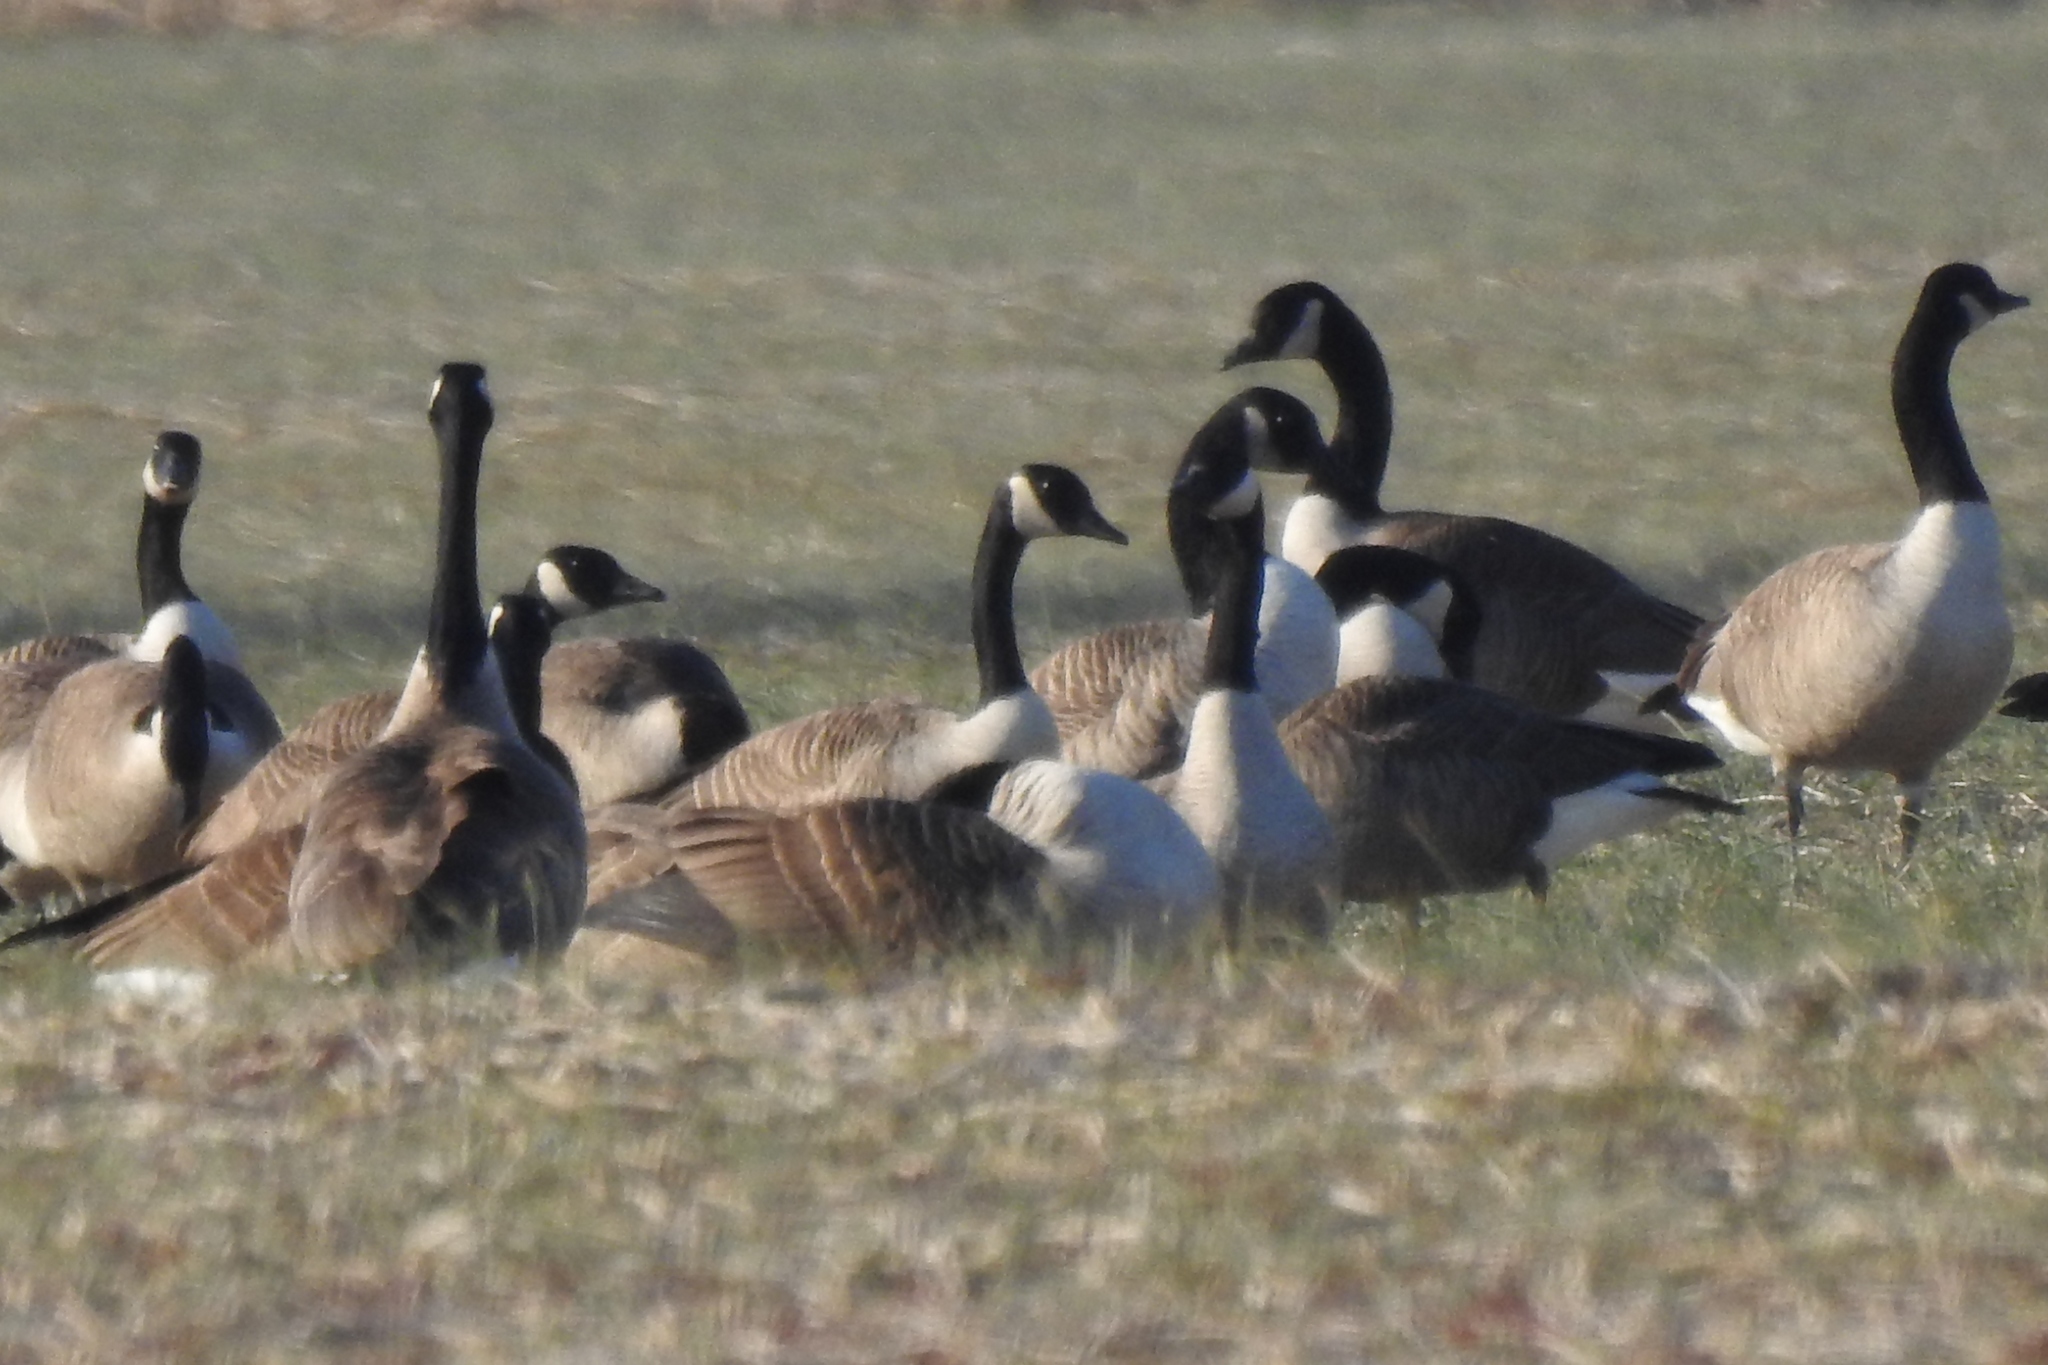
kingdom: Animalia
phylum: Chordata
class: Aves
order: Anseriformes
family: Anatidae
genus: Branta
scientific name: Branta canadensis
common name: Canada goose
